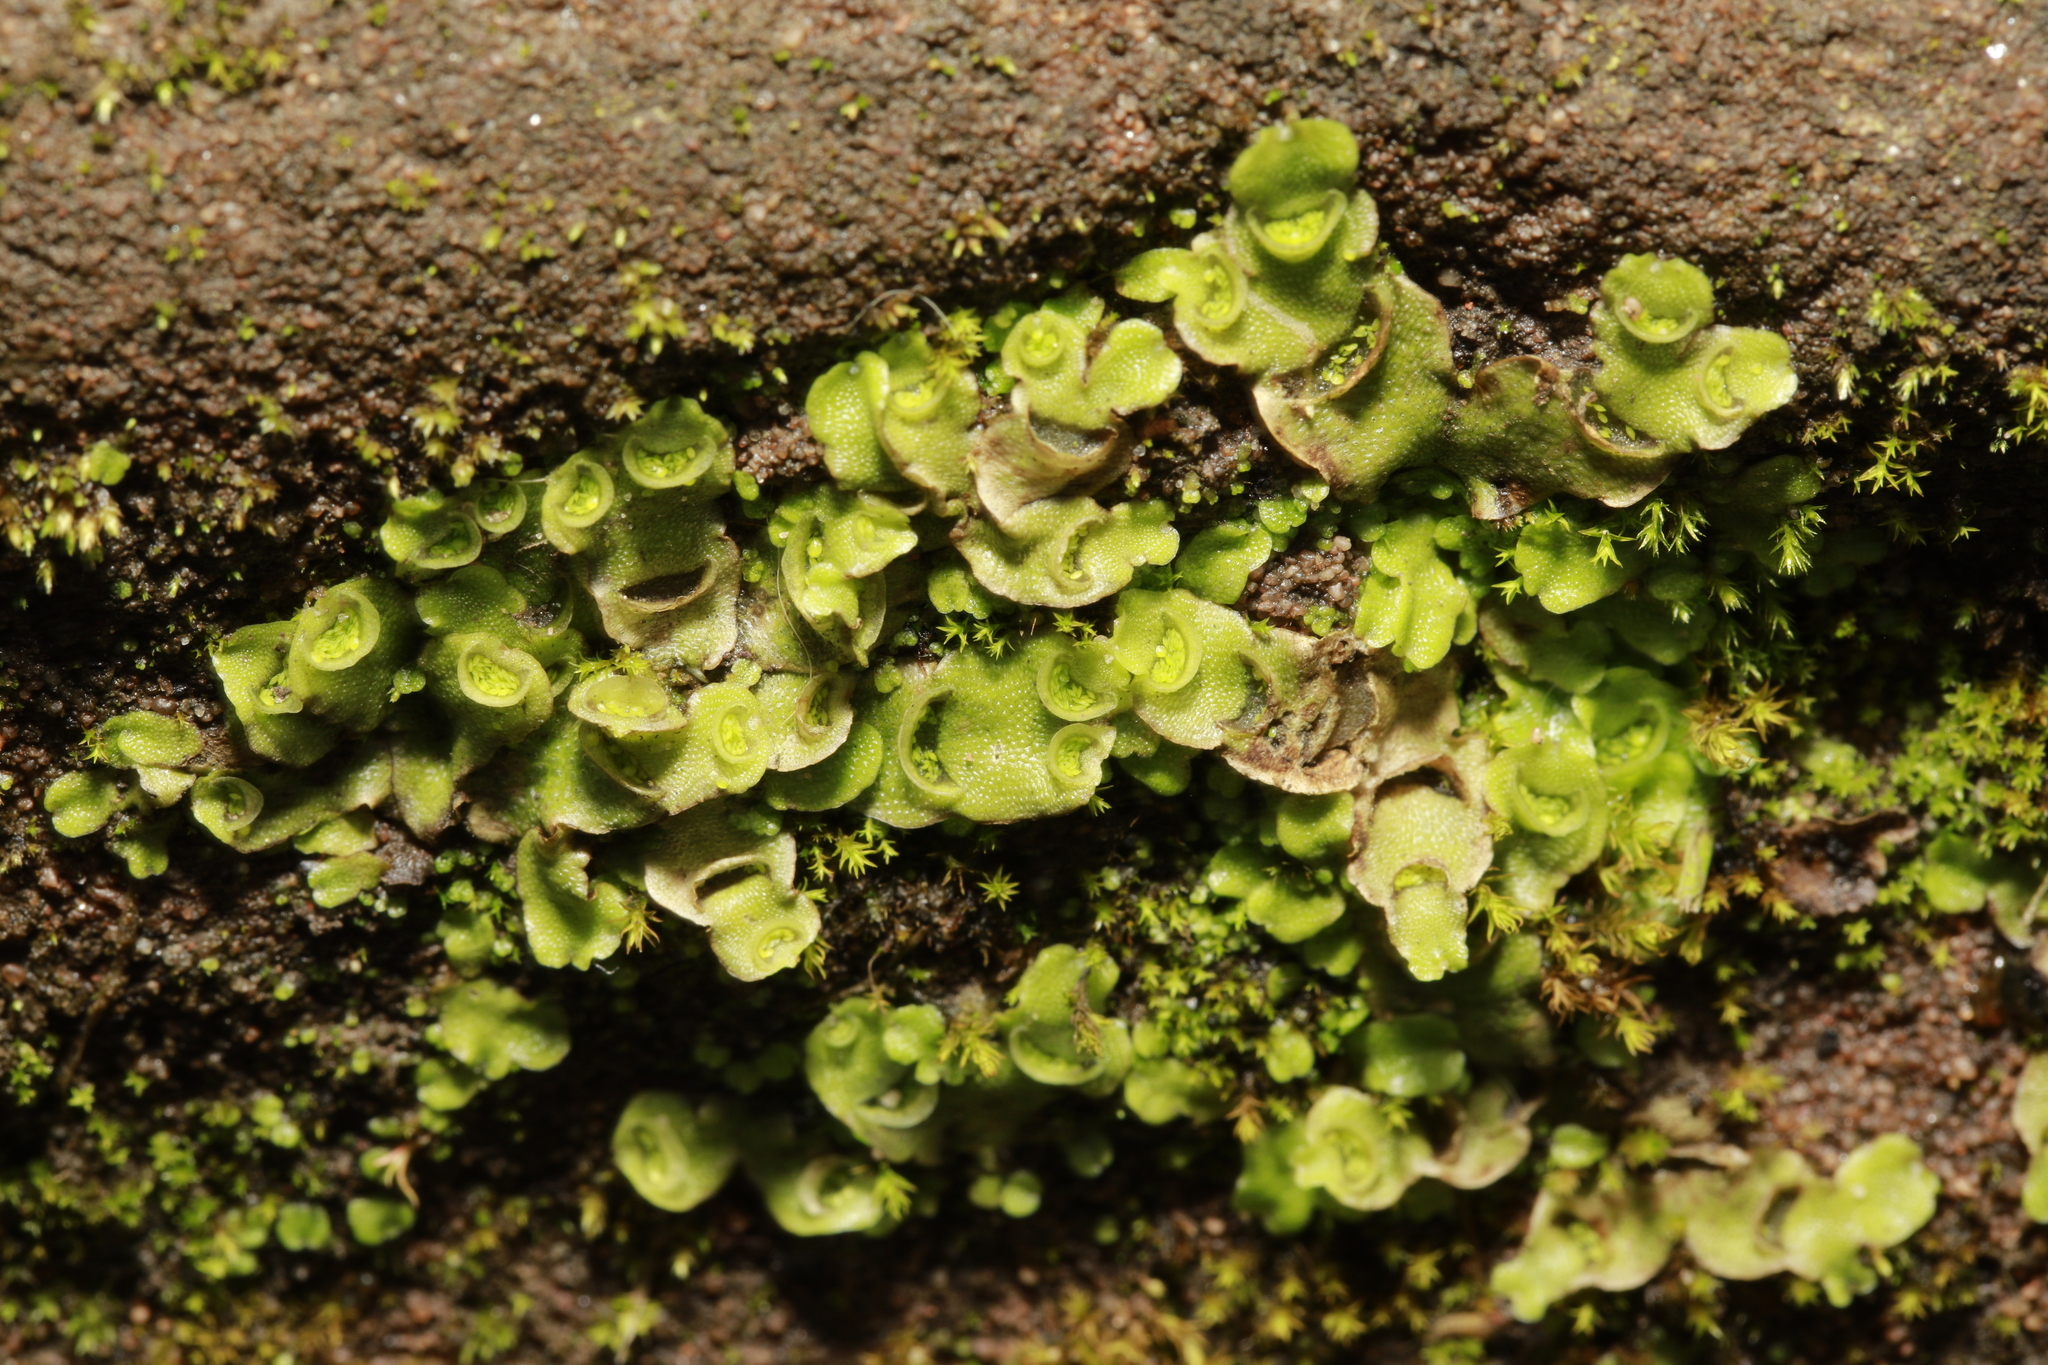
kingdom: Plantae
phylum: Marchantiophyta
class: Marchantiopsida
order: Lunulariales
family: Lunulariaceae
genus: Lunularia
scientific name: Lunularia cruciata
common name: Crescent-cup liverwort
